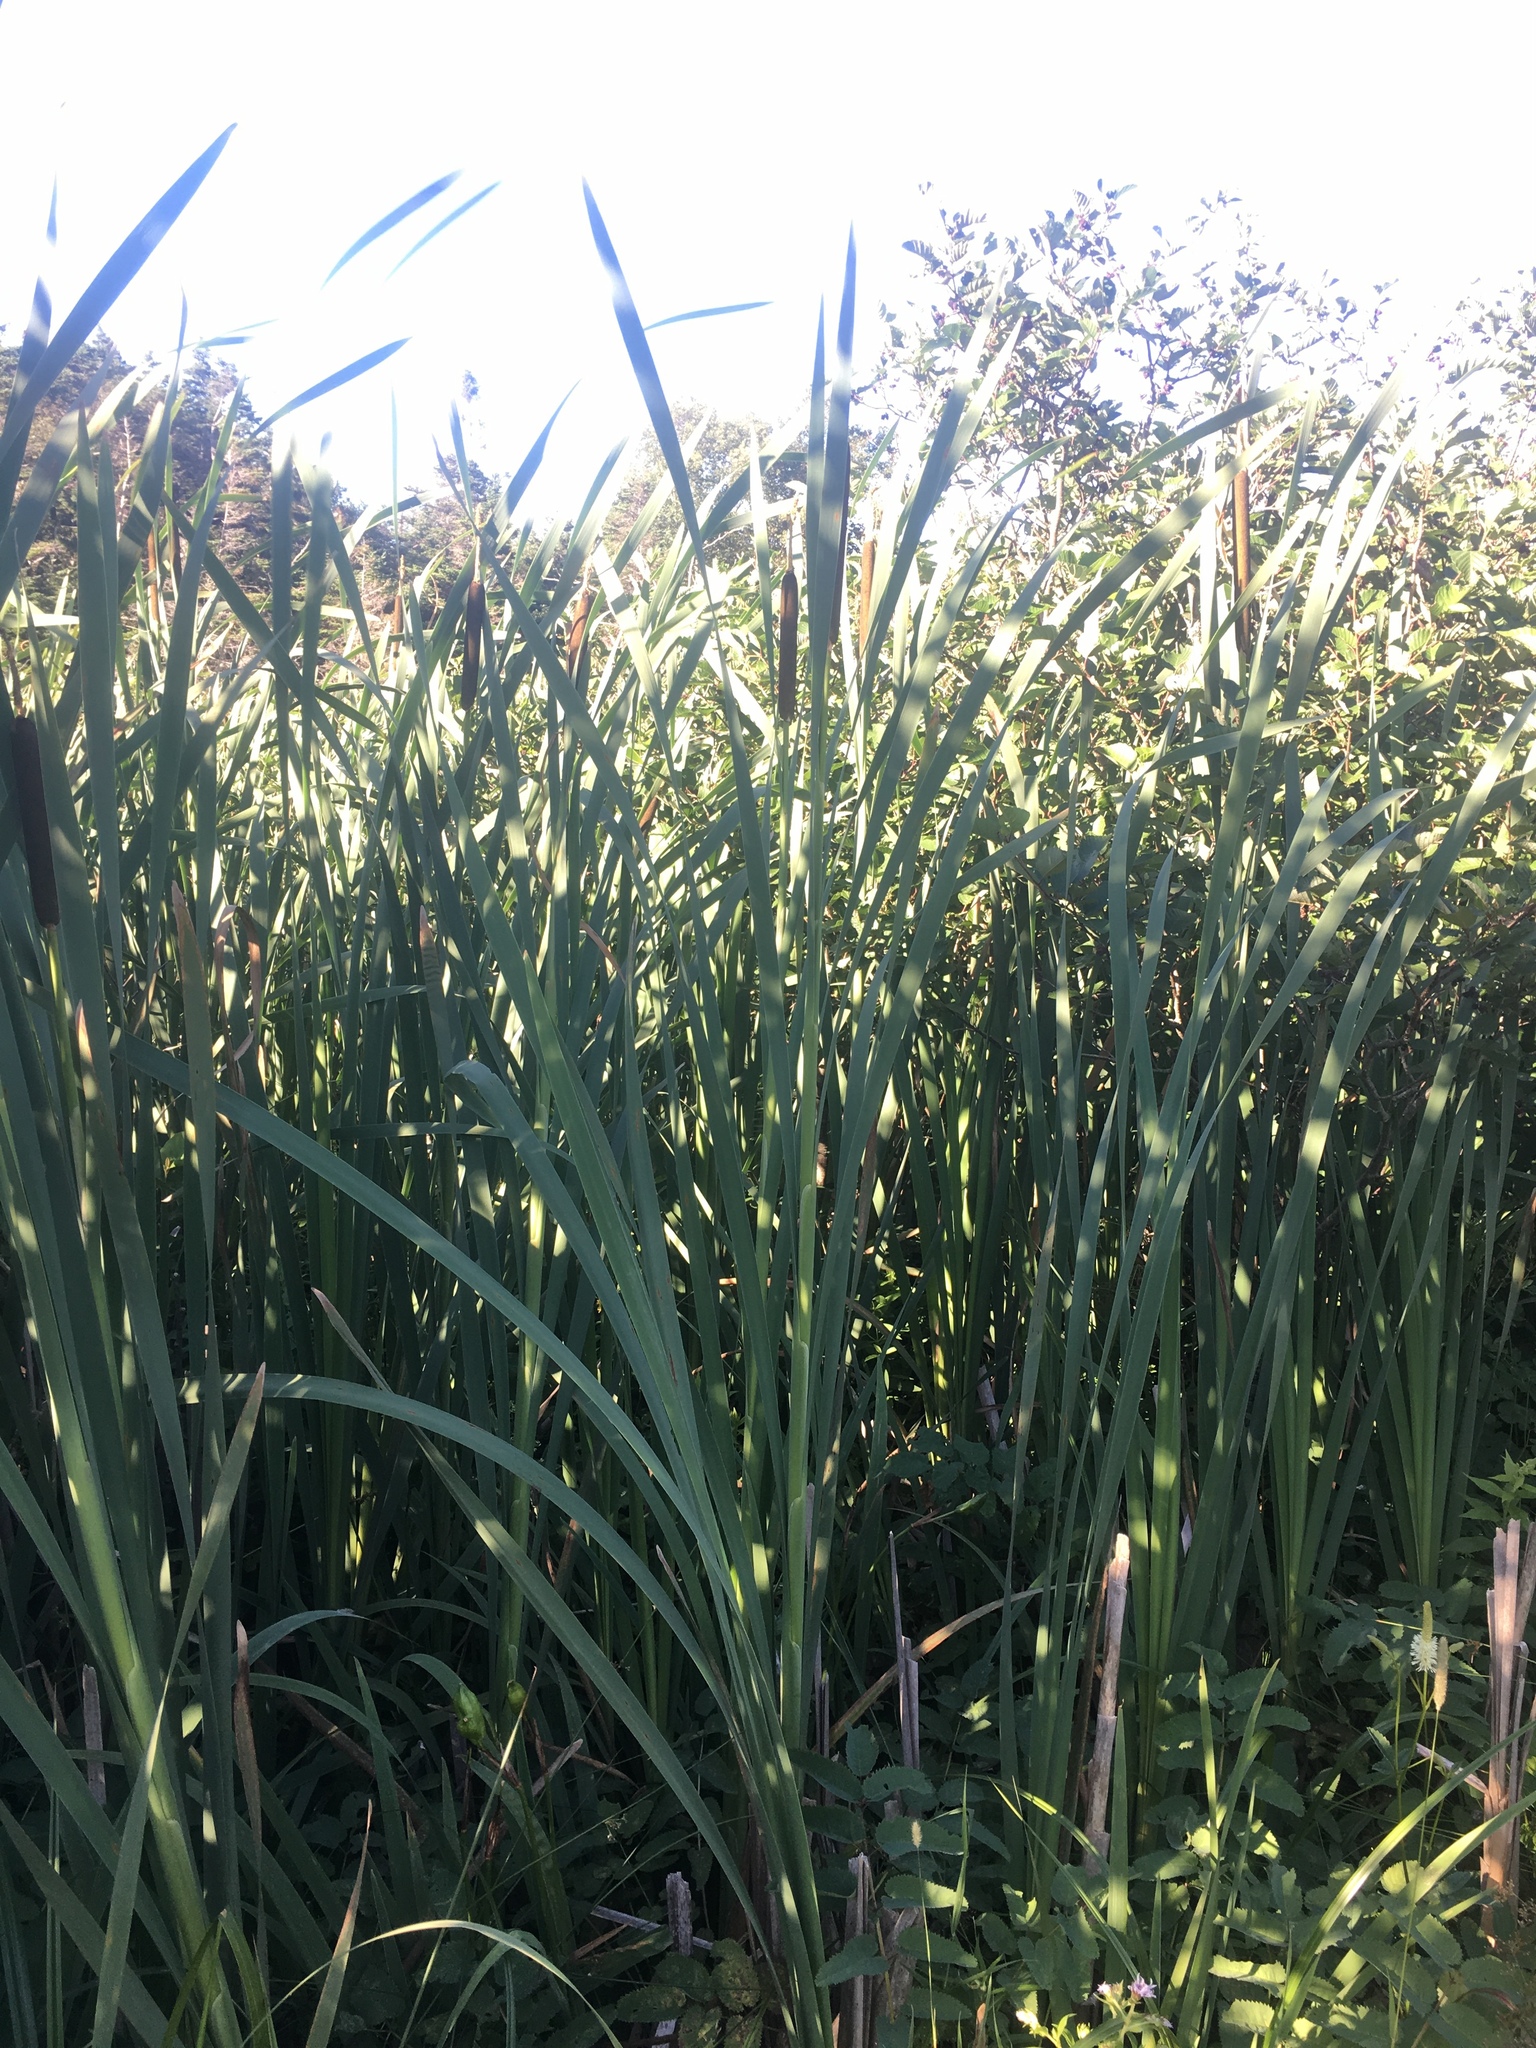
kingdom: Plantae
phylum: Tracheophyta
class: Liliopsida
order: Poales
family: Typhaceae
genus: Typha
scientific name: Typha latifolia
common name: Broadleaf cattail
